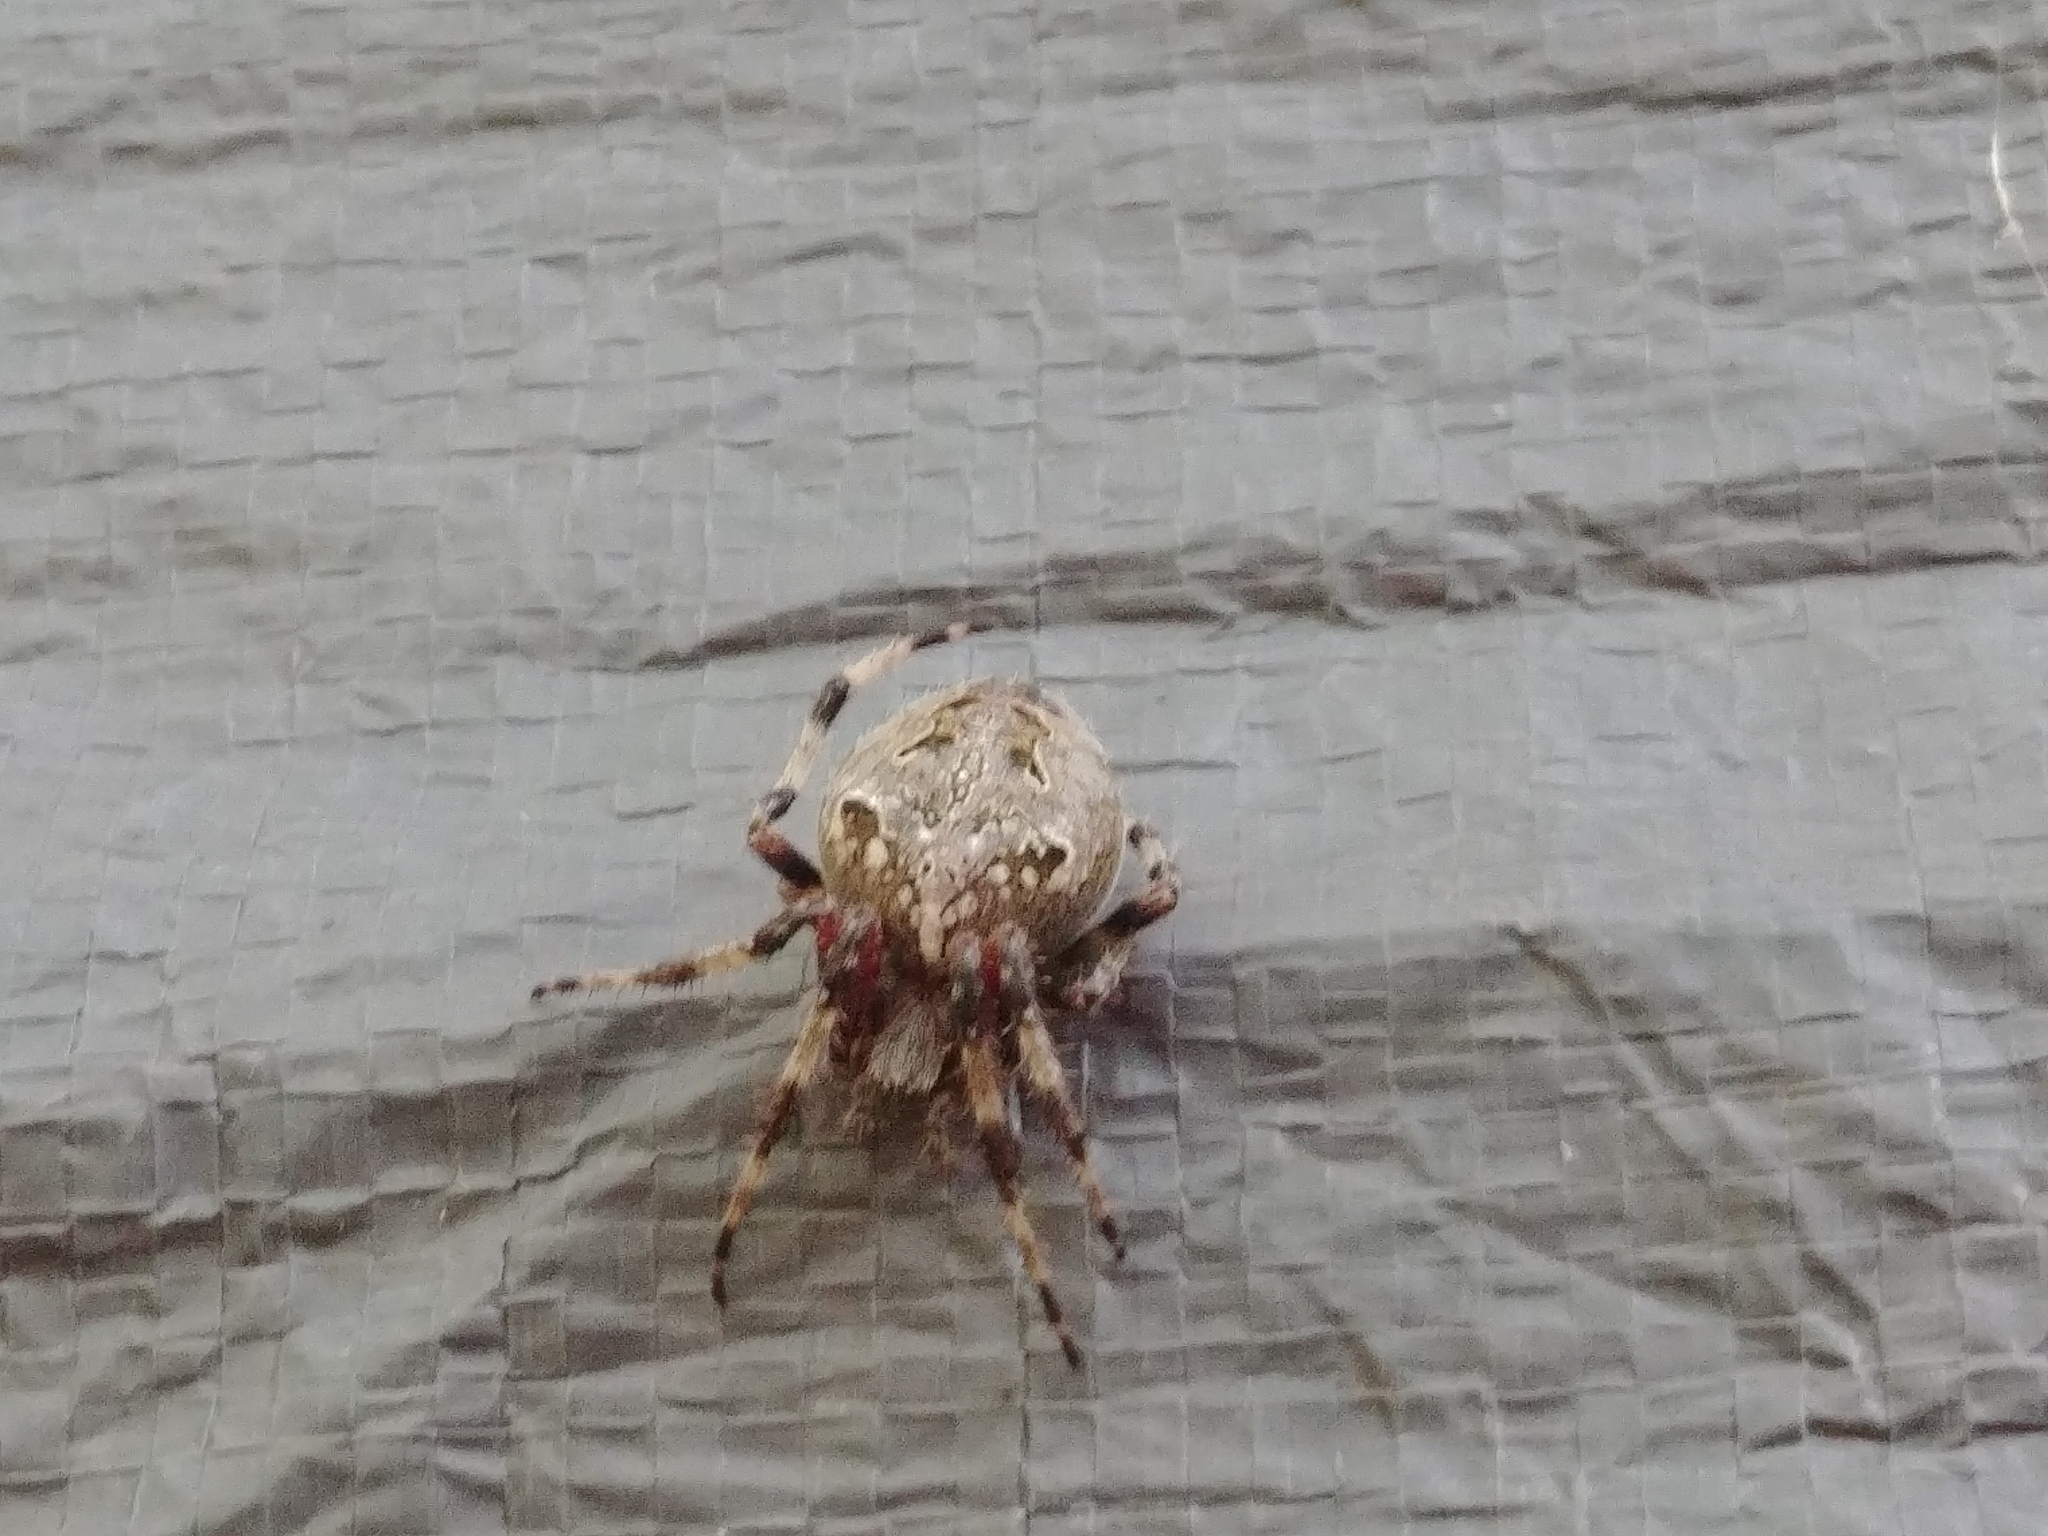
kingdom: Animalia
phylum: Arthropoda
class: Arachnida
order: Araneae
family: Araneidae
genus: Araneus
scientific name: Araneus nordmanni
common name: Nordmann's orbweaver
